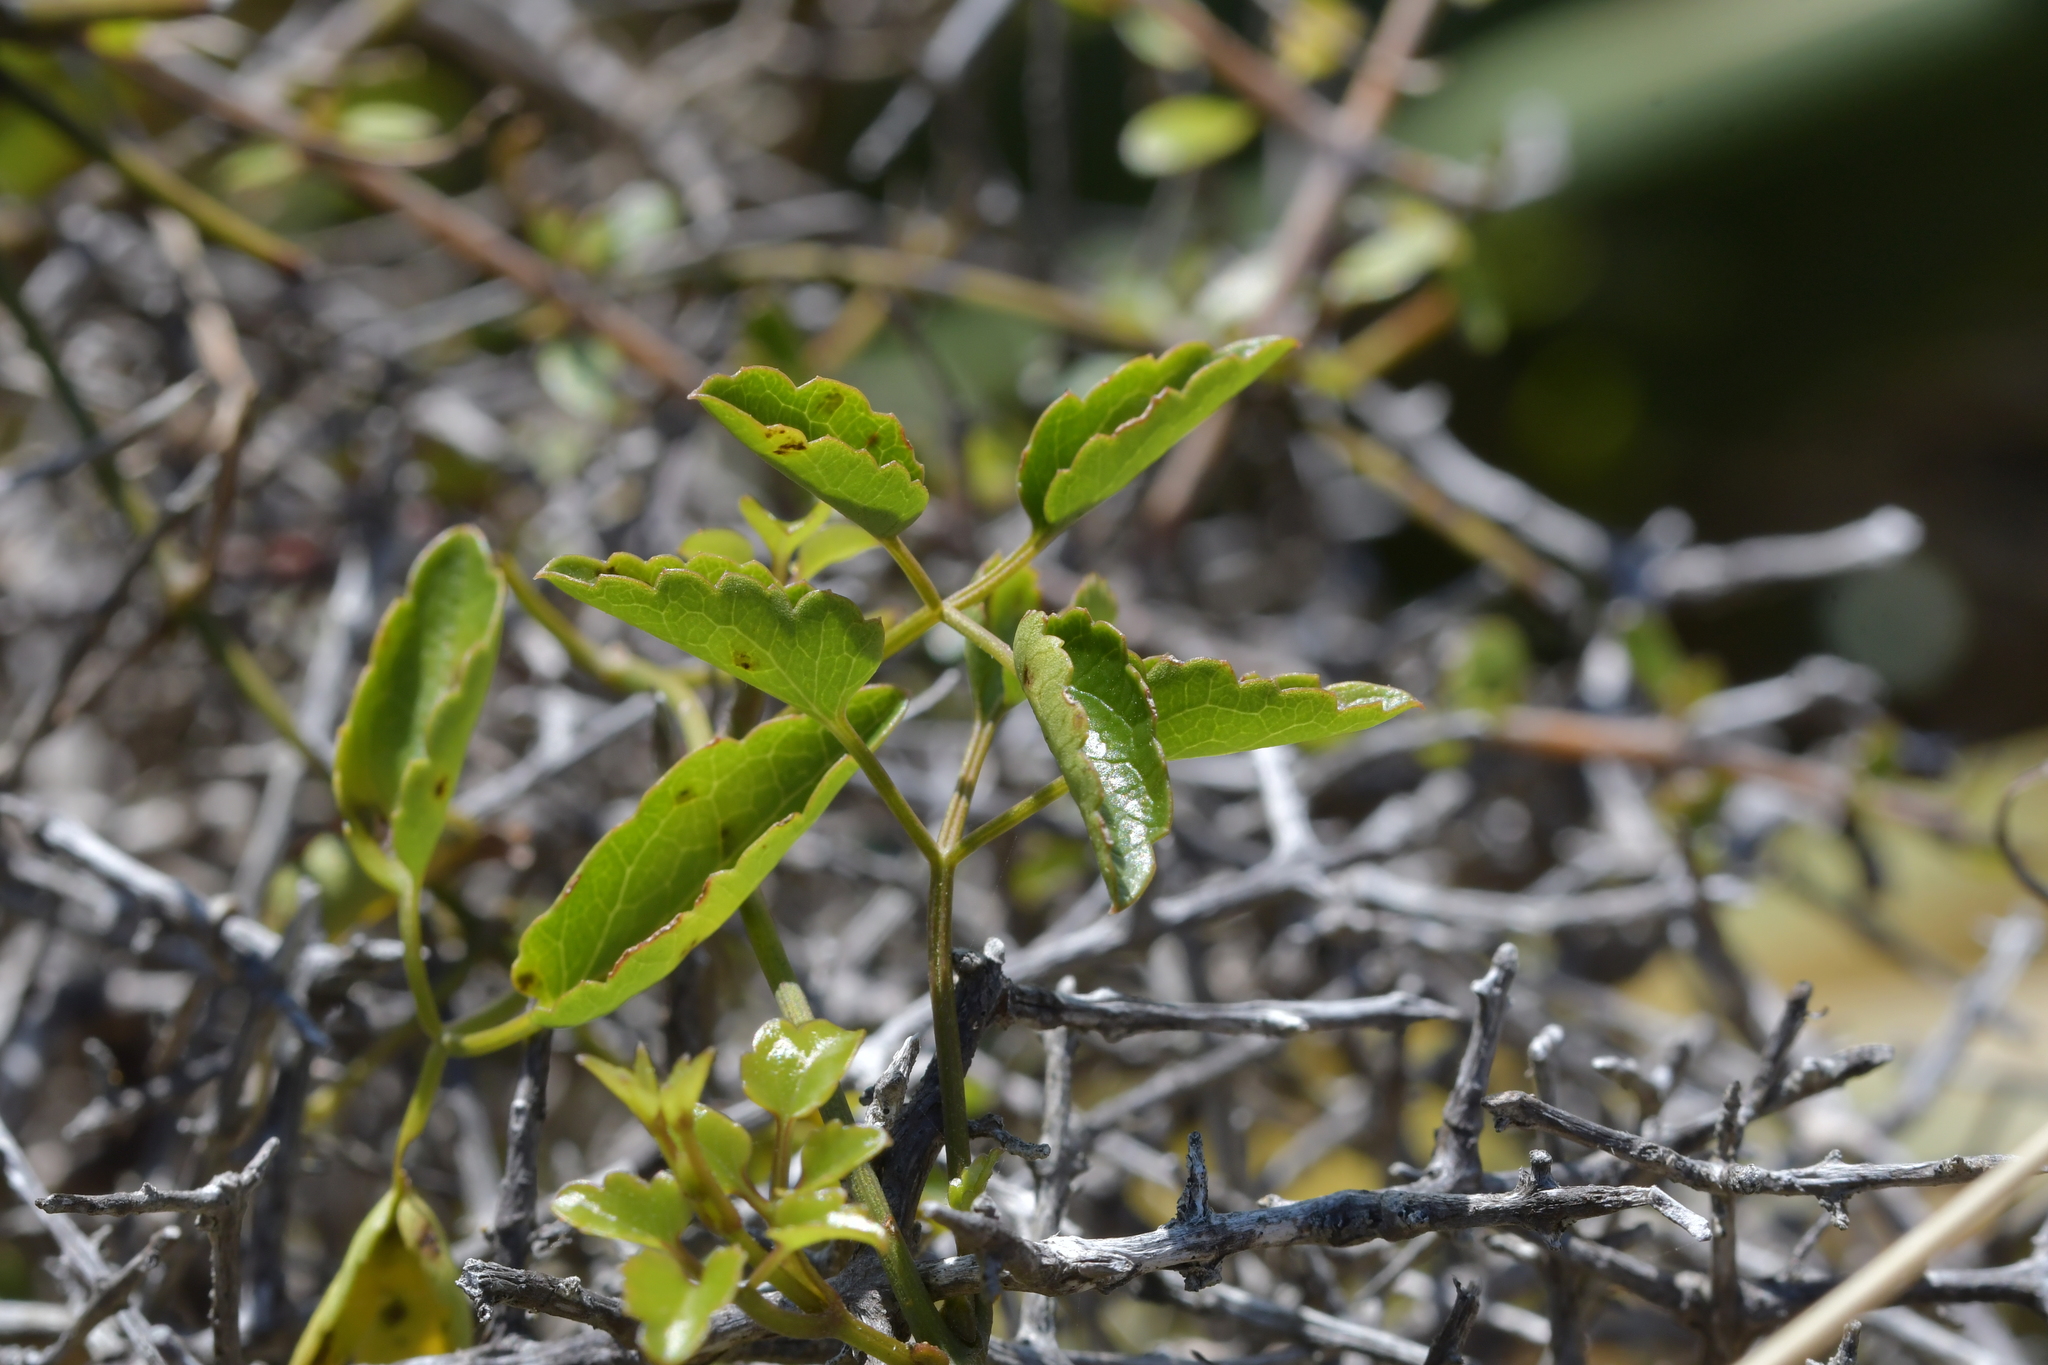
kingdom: Plantae
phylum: Tracheophyta
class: Magnoliopsida
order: Ranunculales
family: Ranunculaceae
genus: Clematis
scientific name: Clematis forsteri
